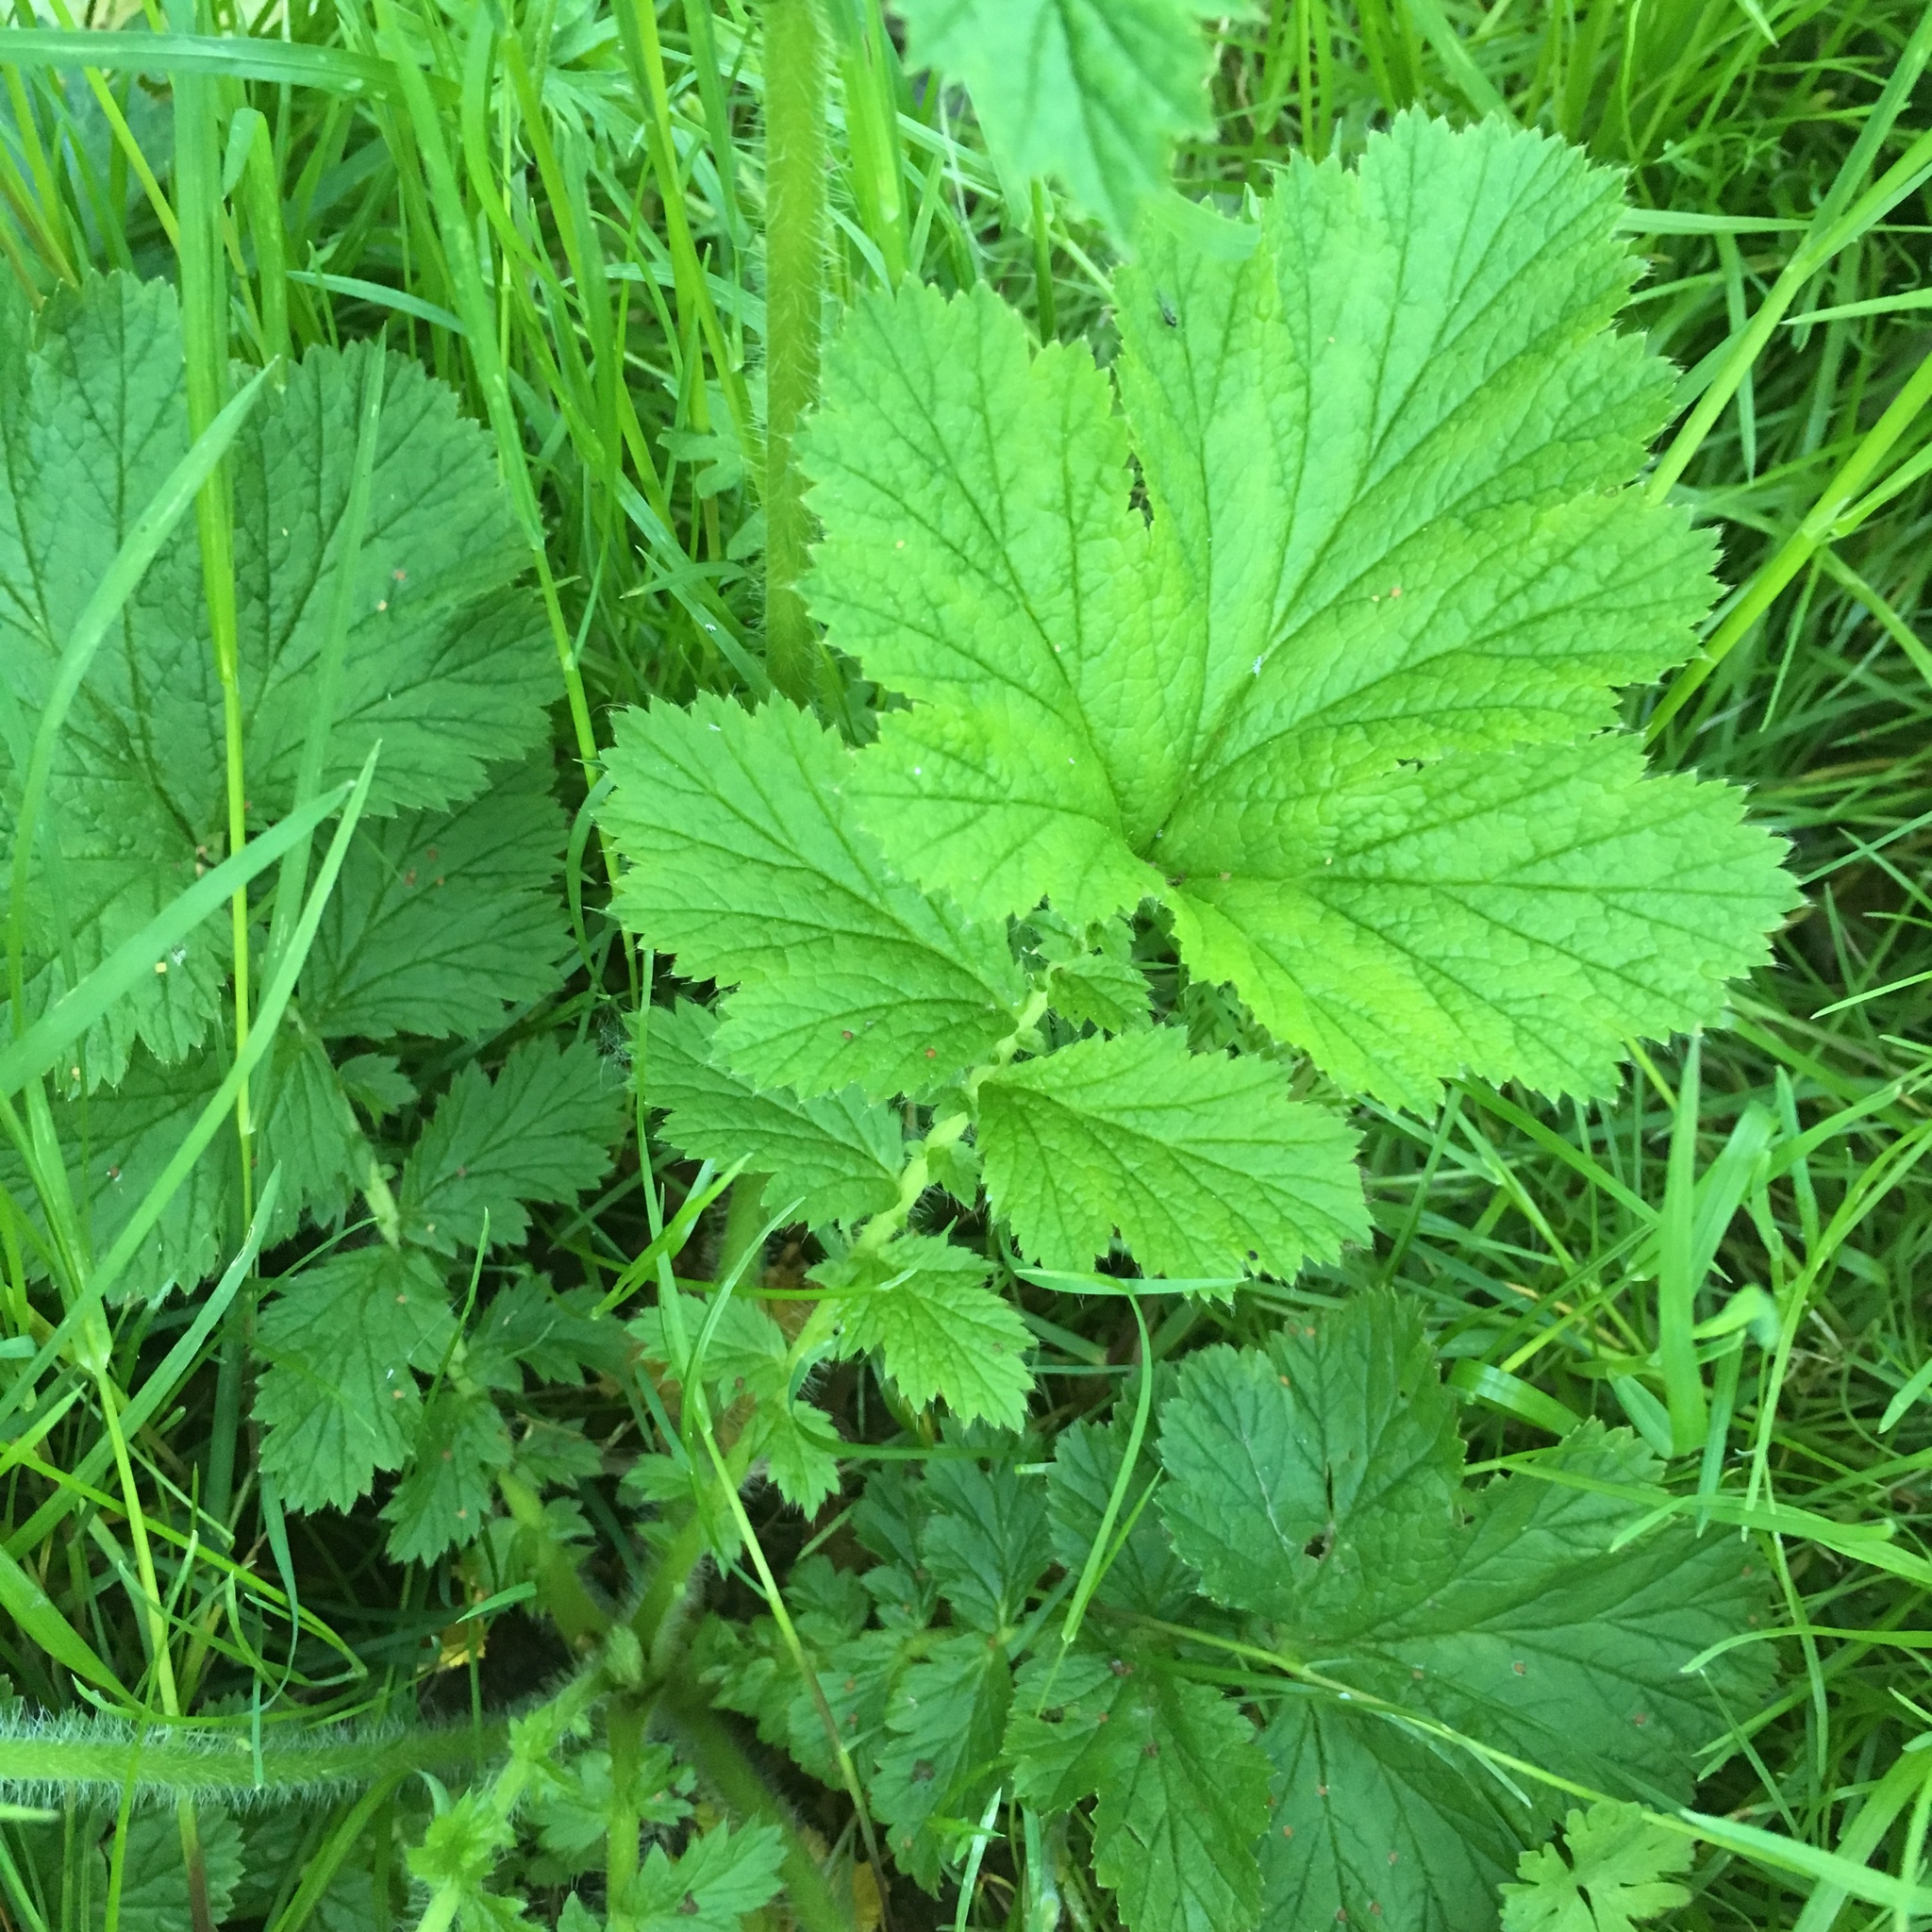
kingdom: Plantae
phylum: Tracheophyta
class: Magnoliopsida
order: Rosales
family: Rosaceae
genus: Geum
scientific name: Geum macrophyllum
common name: Large-leaved avens
